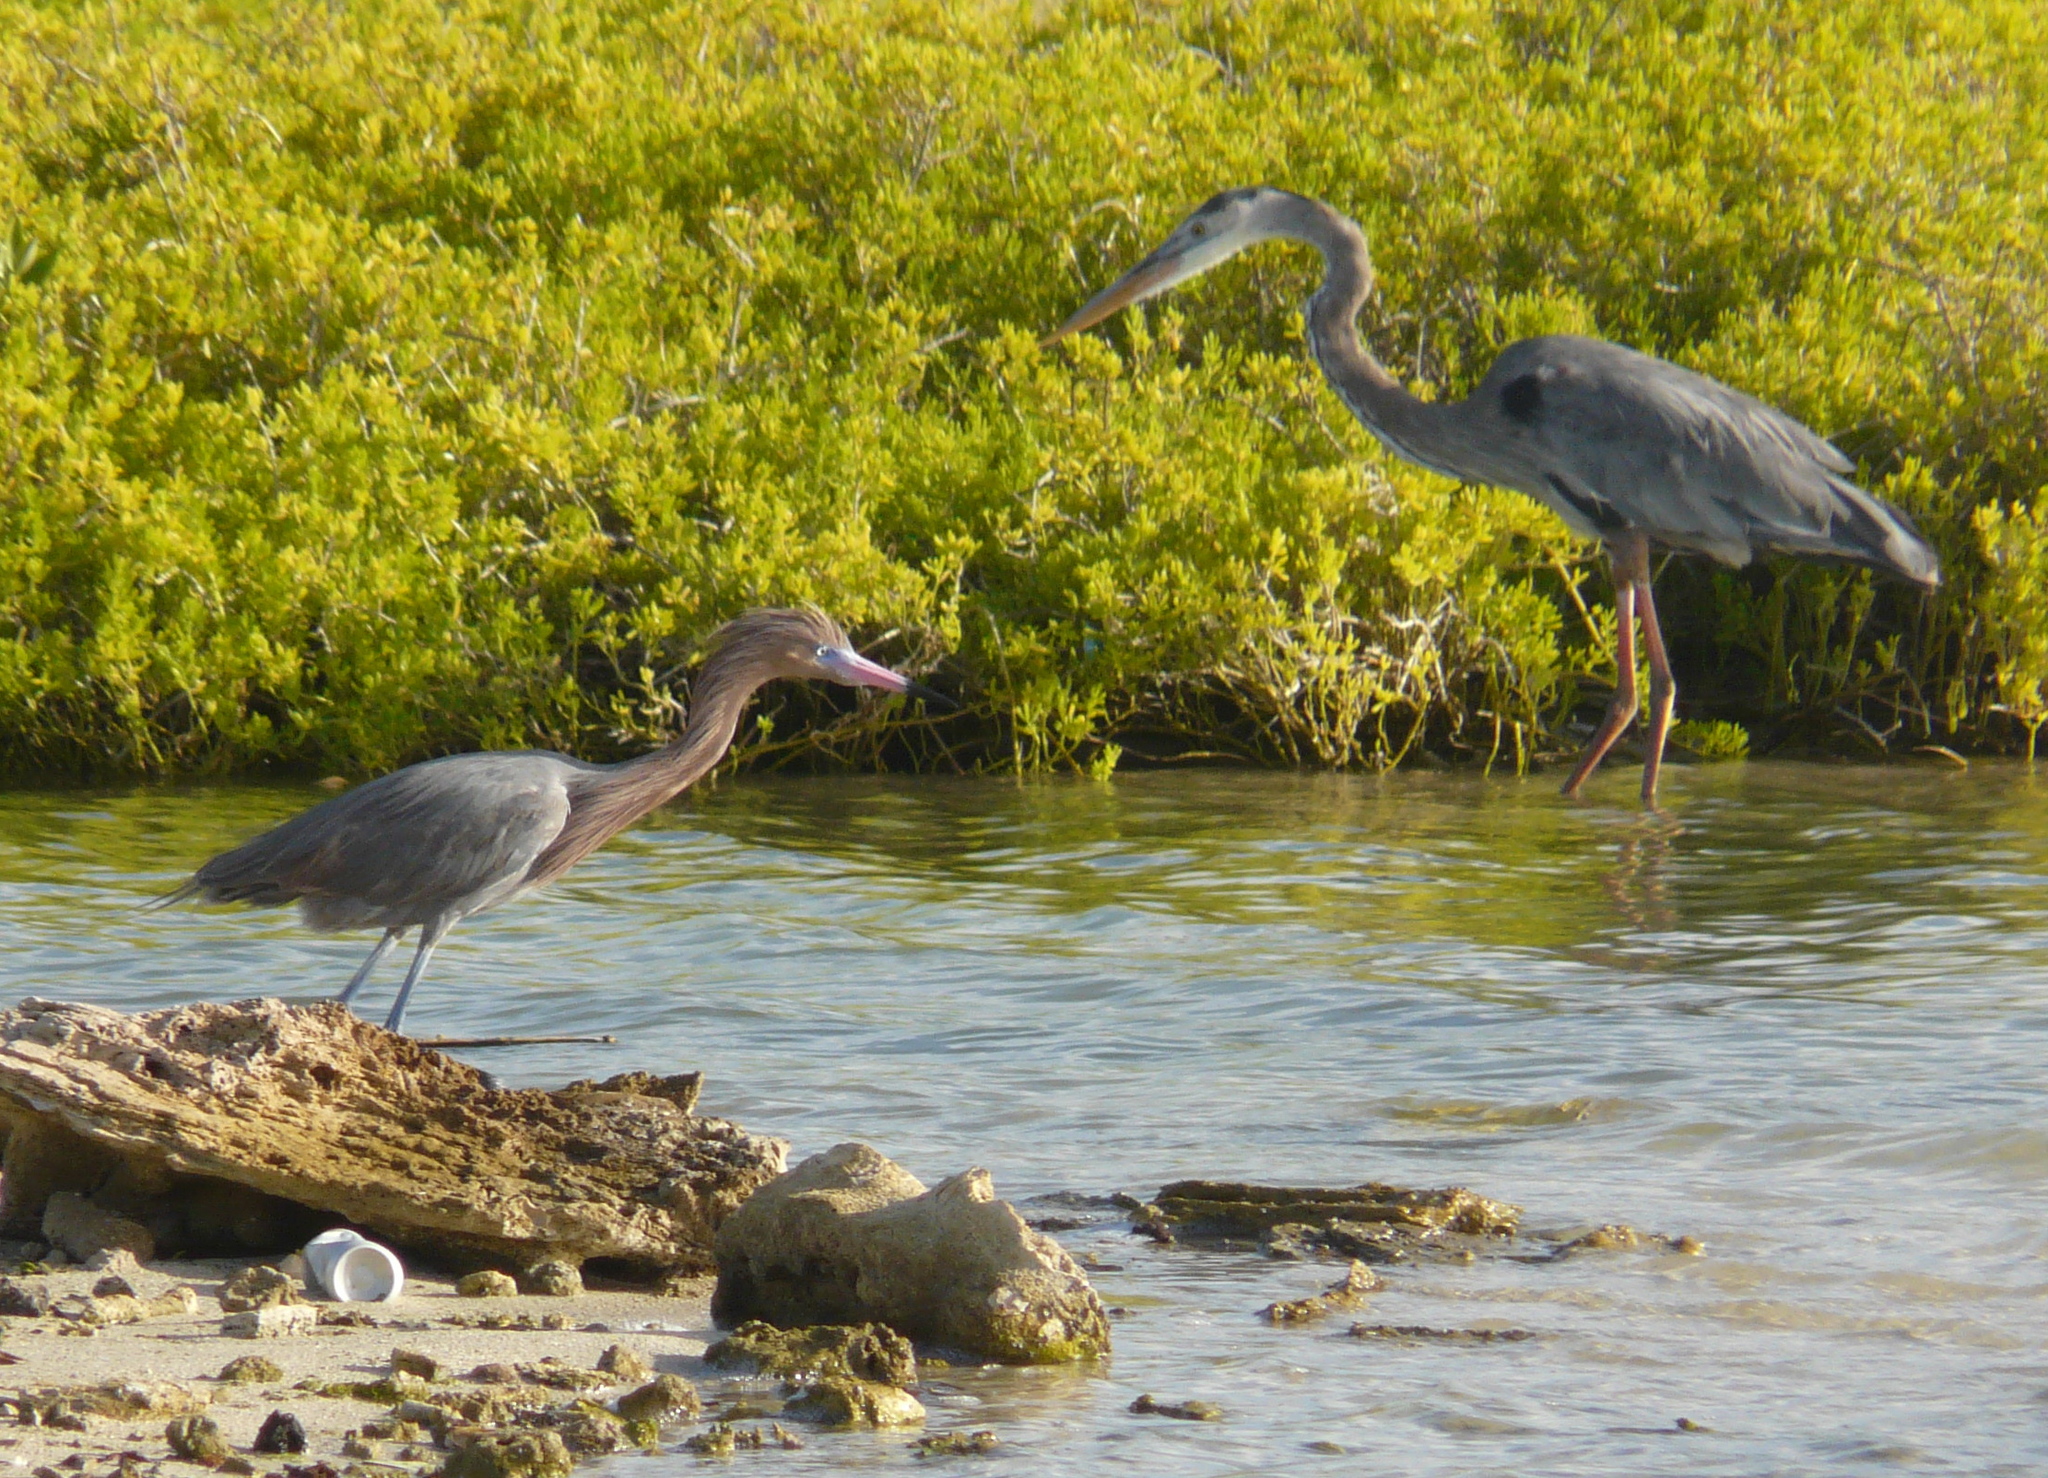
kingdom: Animalia
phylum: Chordata
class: Aves
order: Pelecaniformes
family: Ardeidae
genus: Egretta
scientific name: Egretta rufescens
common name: Reddish egret
